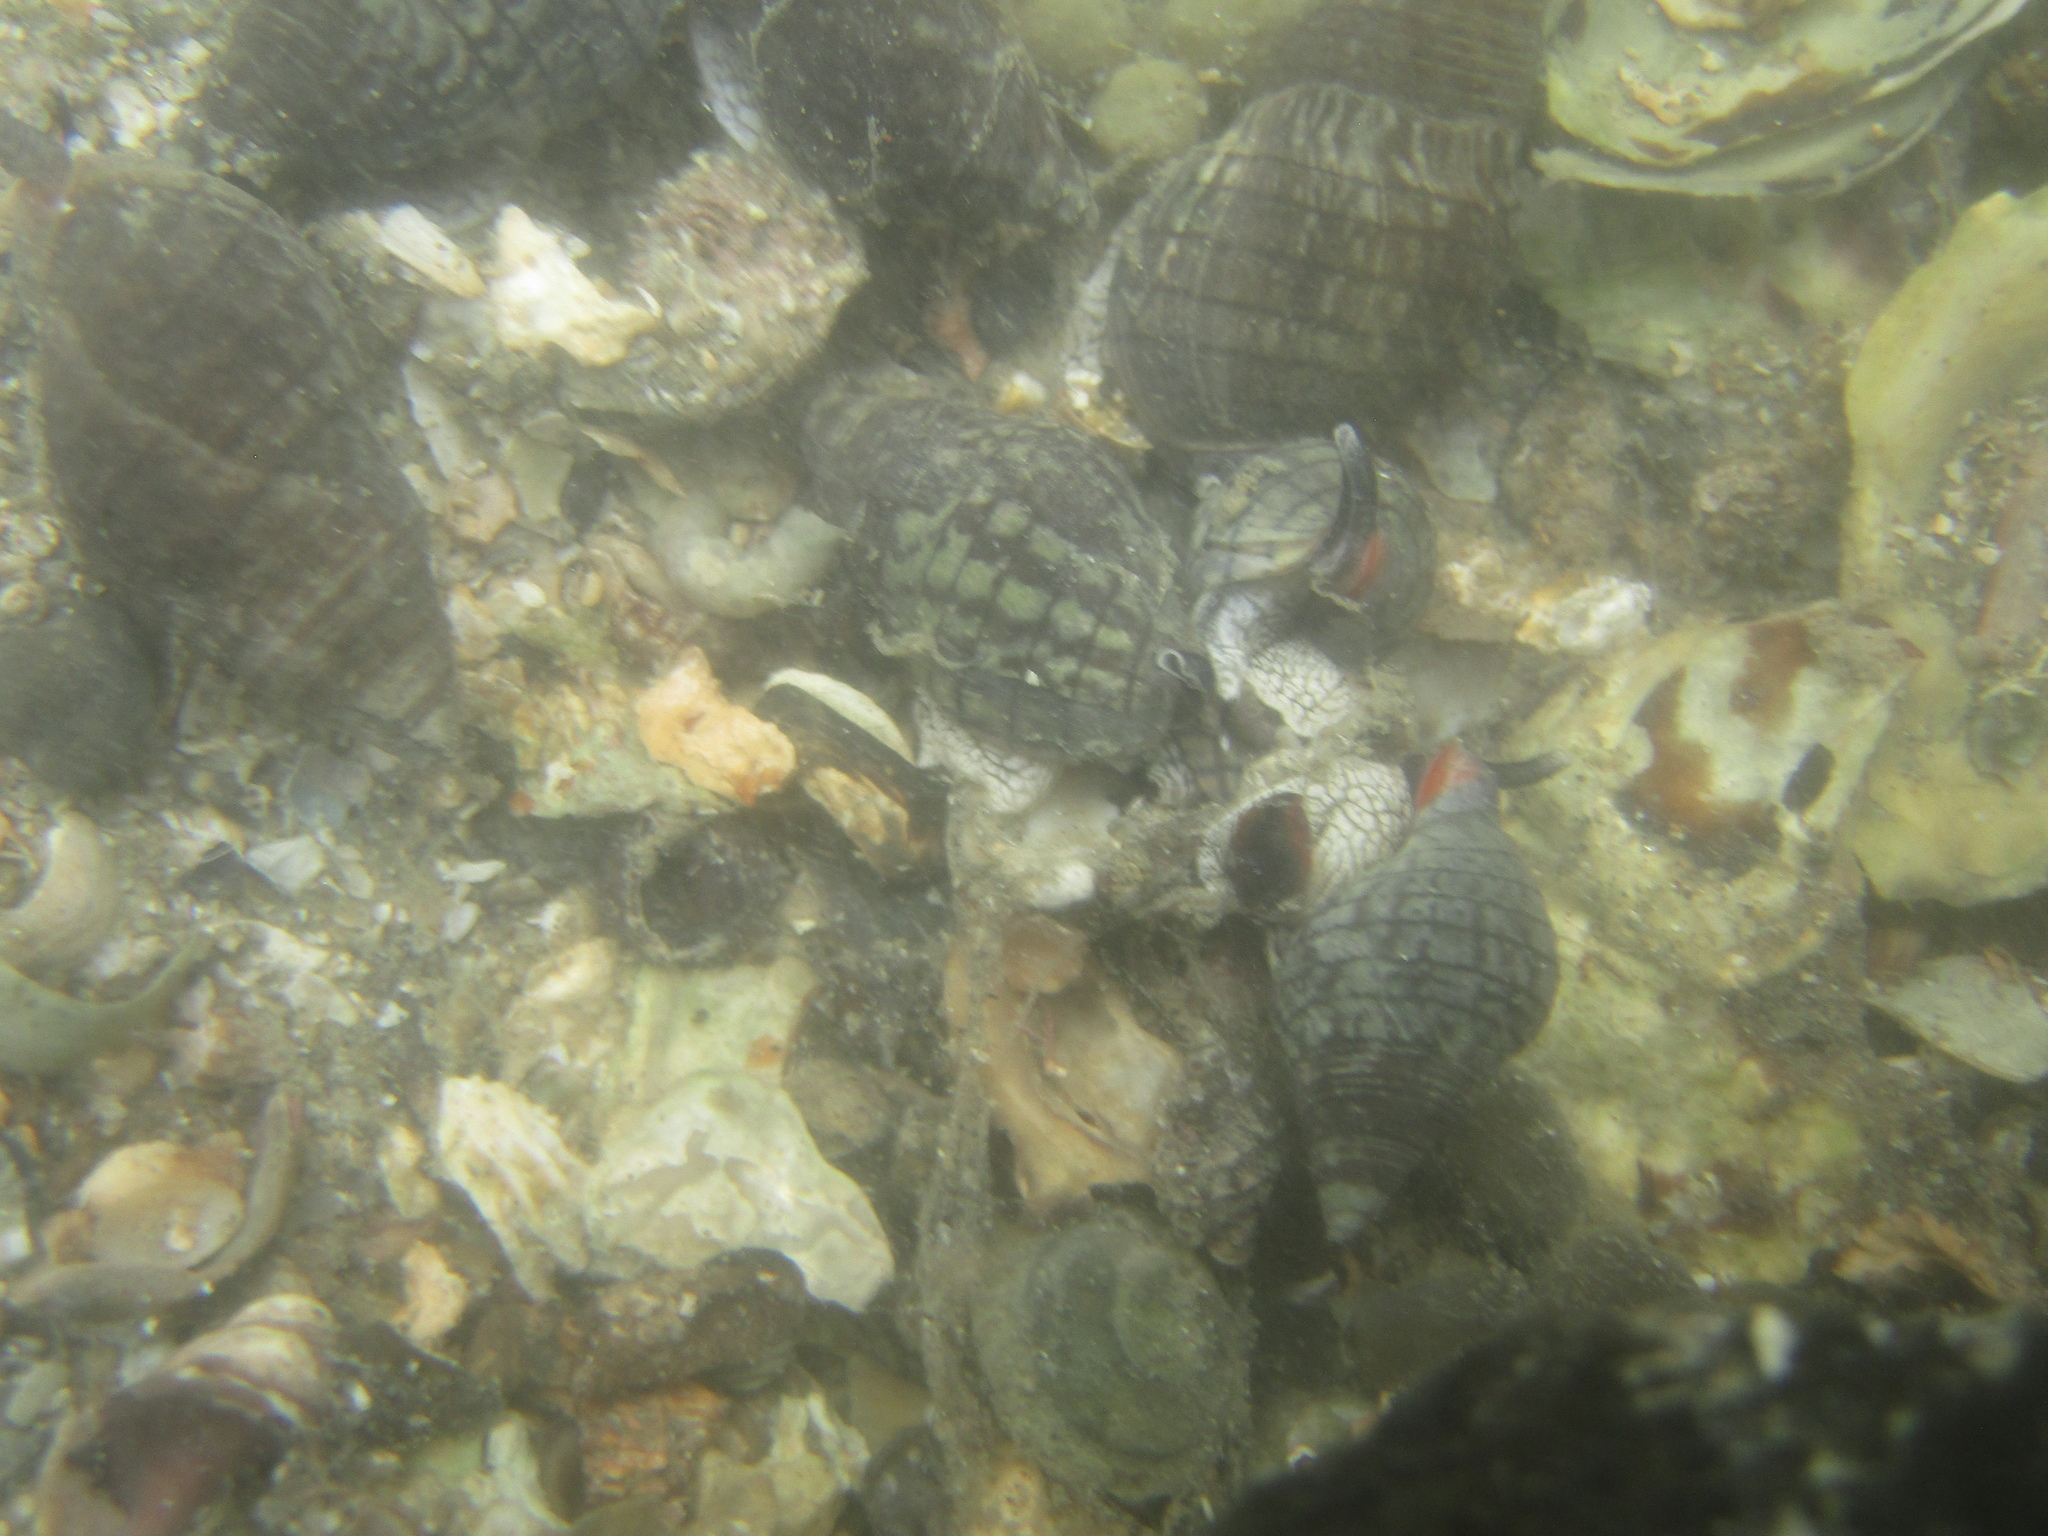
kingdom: Animalia
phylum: Mollusca
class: Gastropoda
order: Neogastropoda
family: Cominellidae
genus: Cominella
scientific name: Cominella virgata
